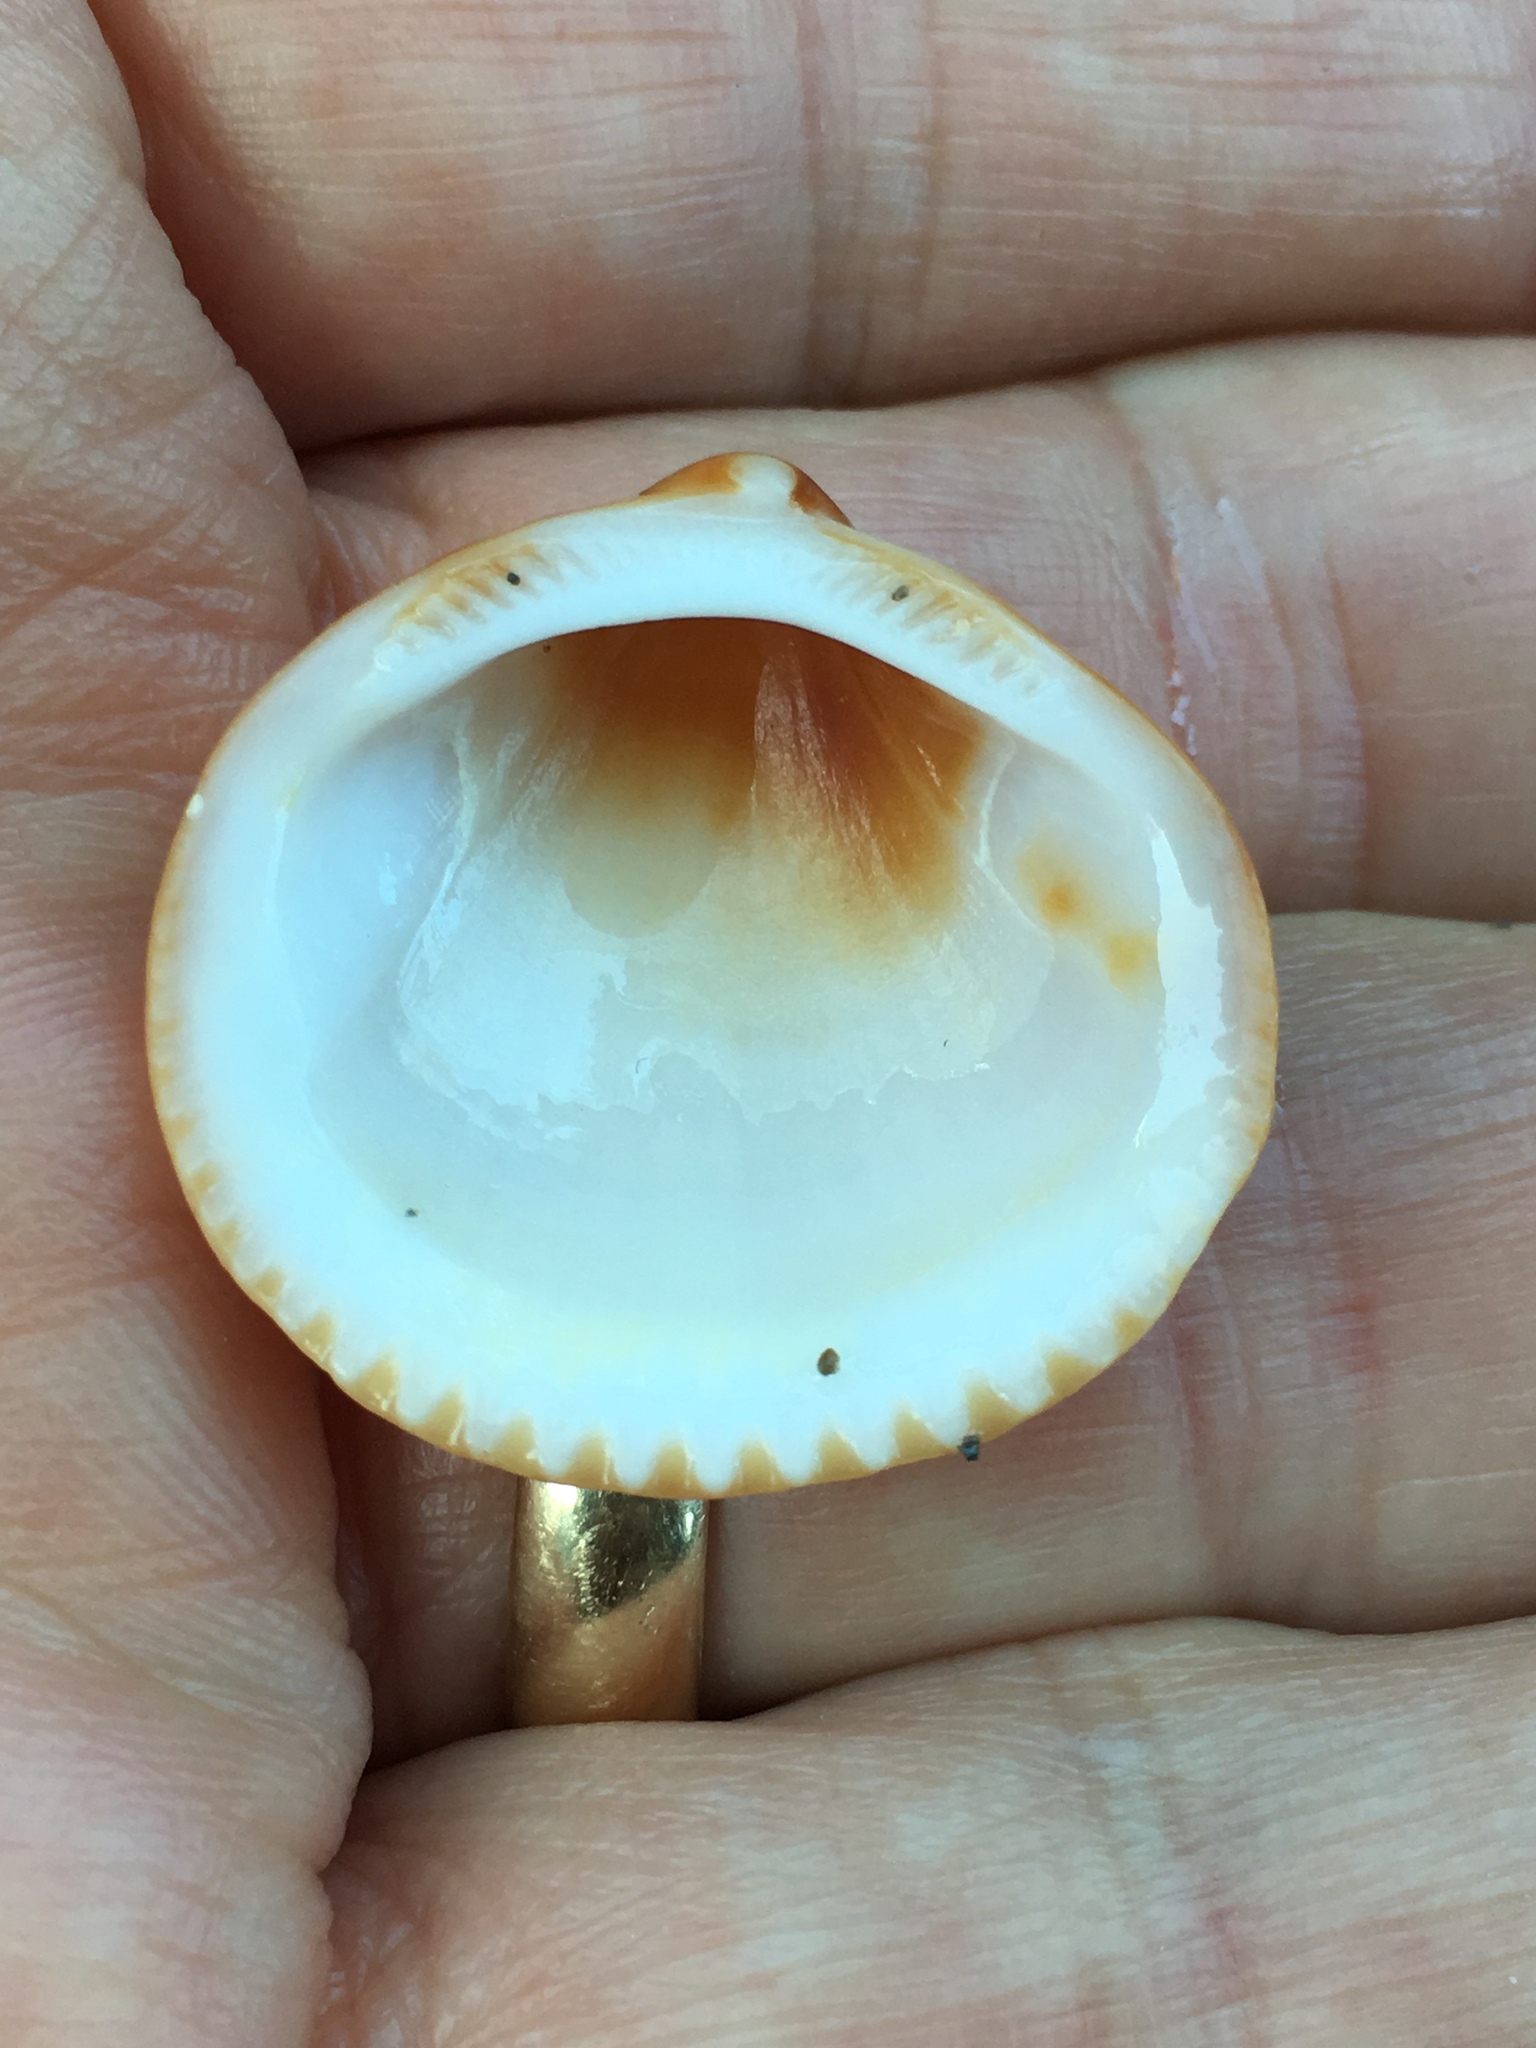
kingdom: Animalia
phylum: Mollusca
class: Bivalvia
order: Arcida
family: Glycymerididae
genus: Glycymeris
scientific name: Glycymeris spectralis
